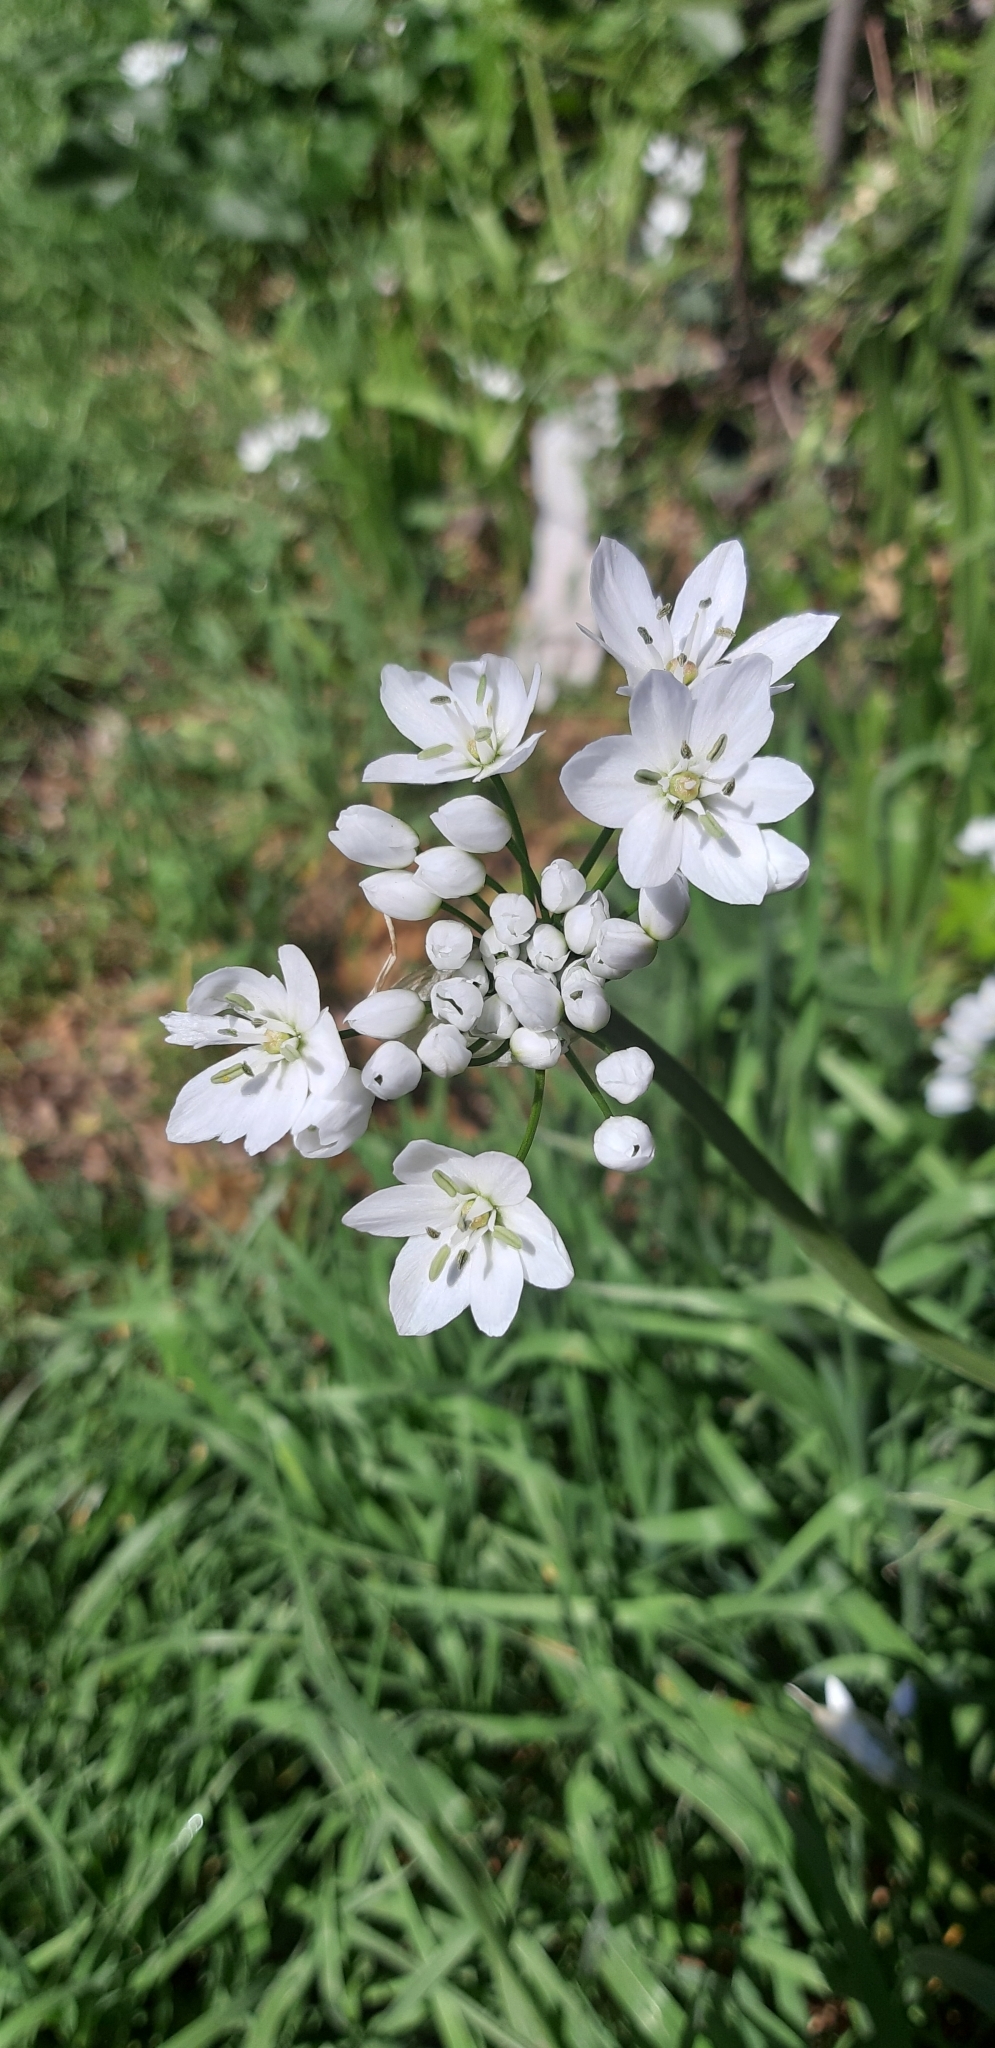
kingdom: Plantae
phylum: Tracheophyta
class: Liliopsida
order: Asparagales
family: Amaryllidaceae
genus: Allium
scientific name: Allium neapolitanum
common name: Neapolitan garlic
